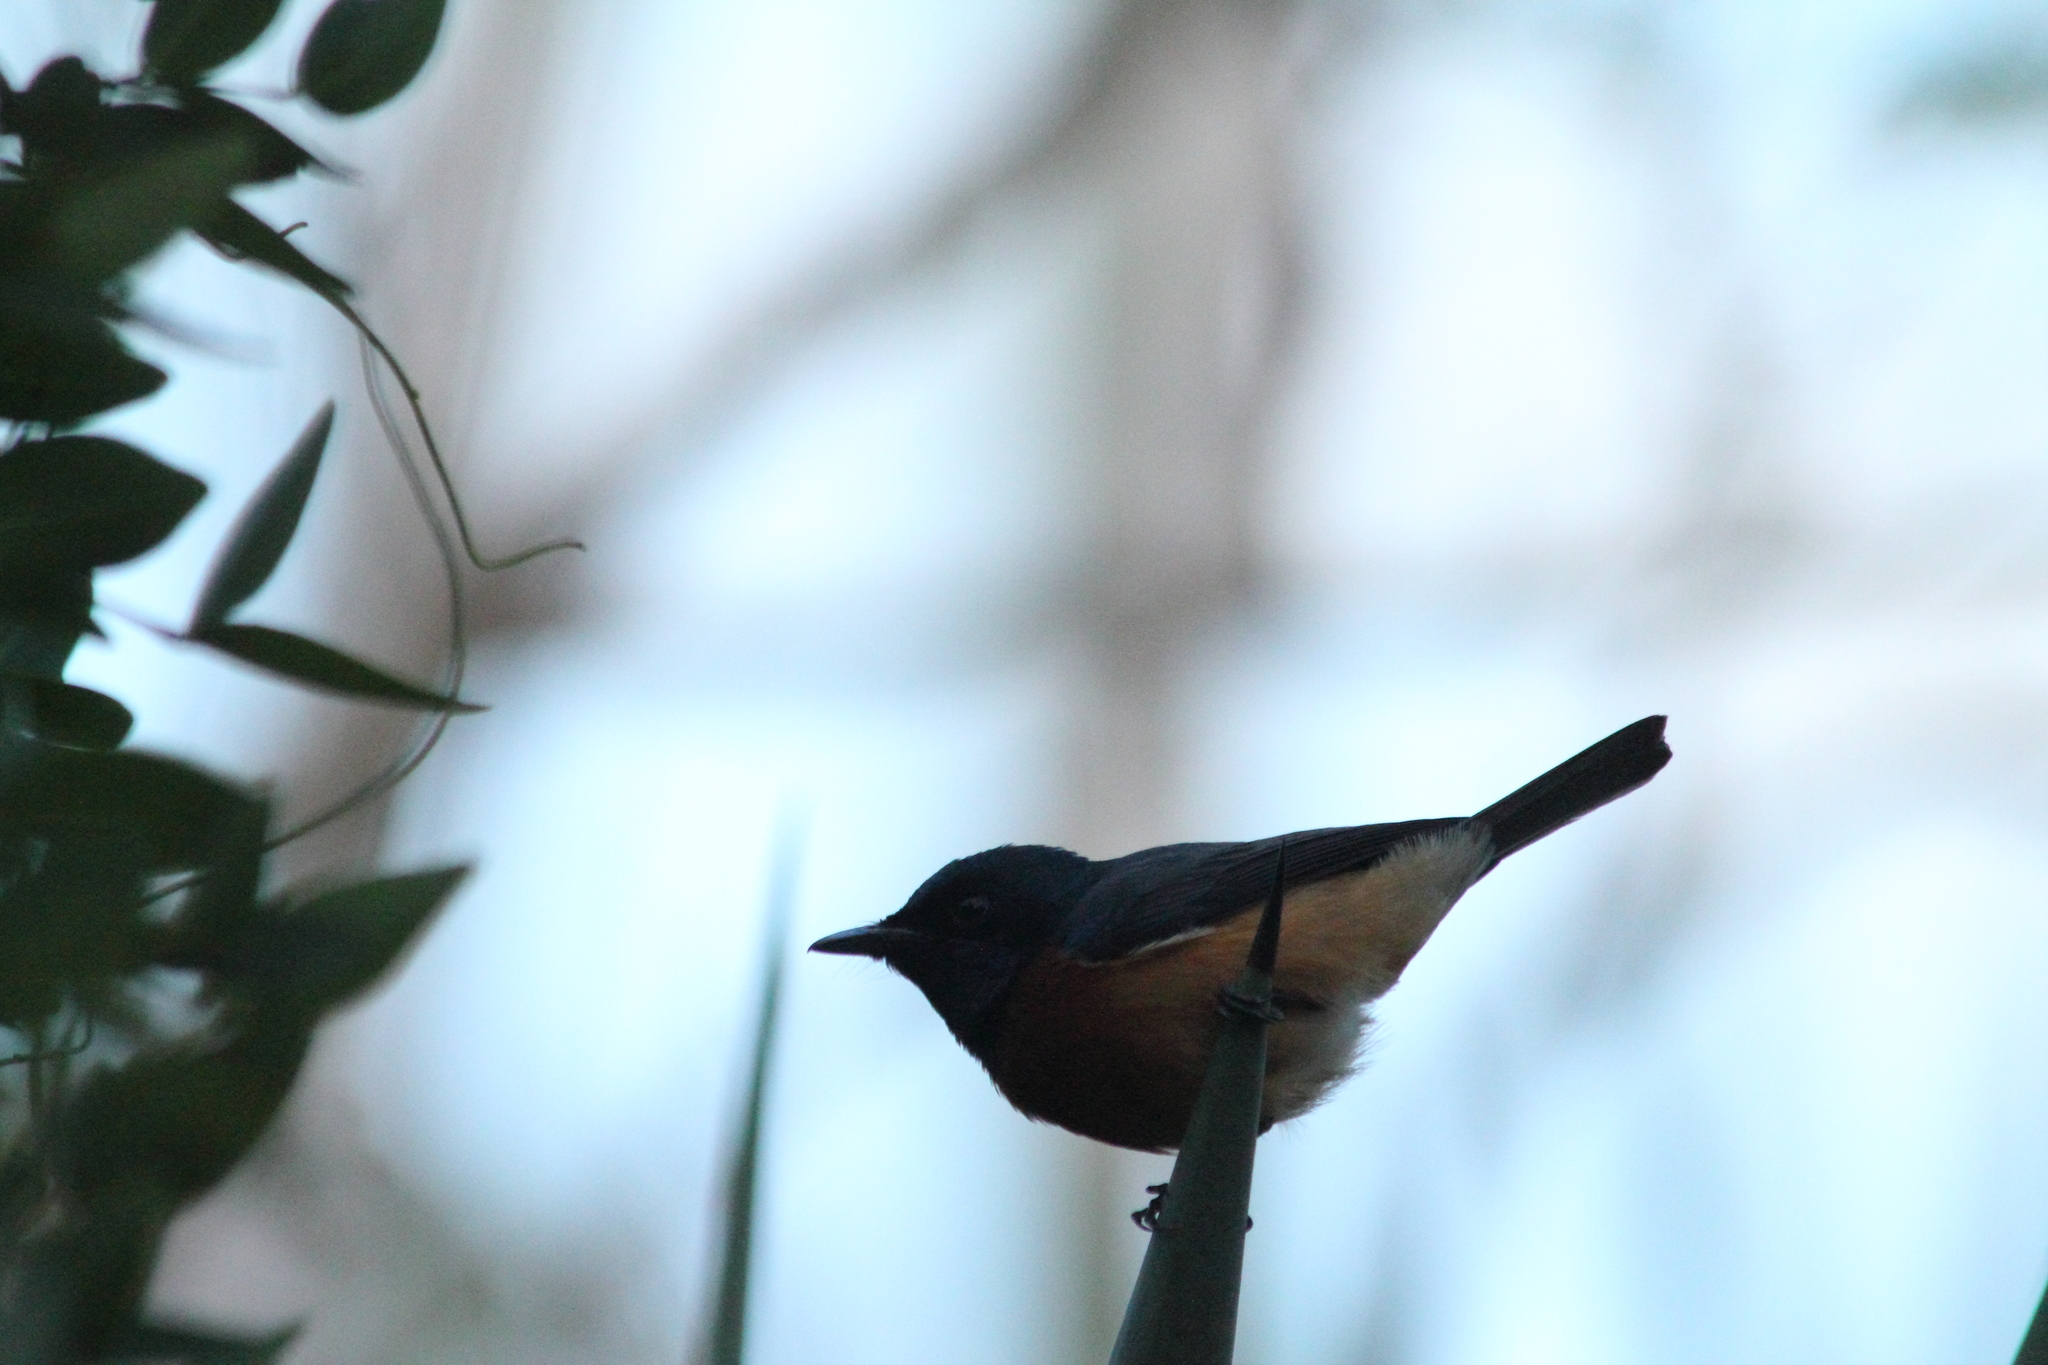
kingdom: Animalia
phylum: Chordata
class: Aves
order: Passeriformes
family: Monarchidae
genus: Myiagra
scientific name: Myiagra vanikorensis
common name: Vanikoro flycatcher
